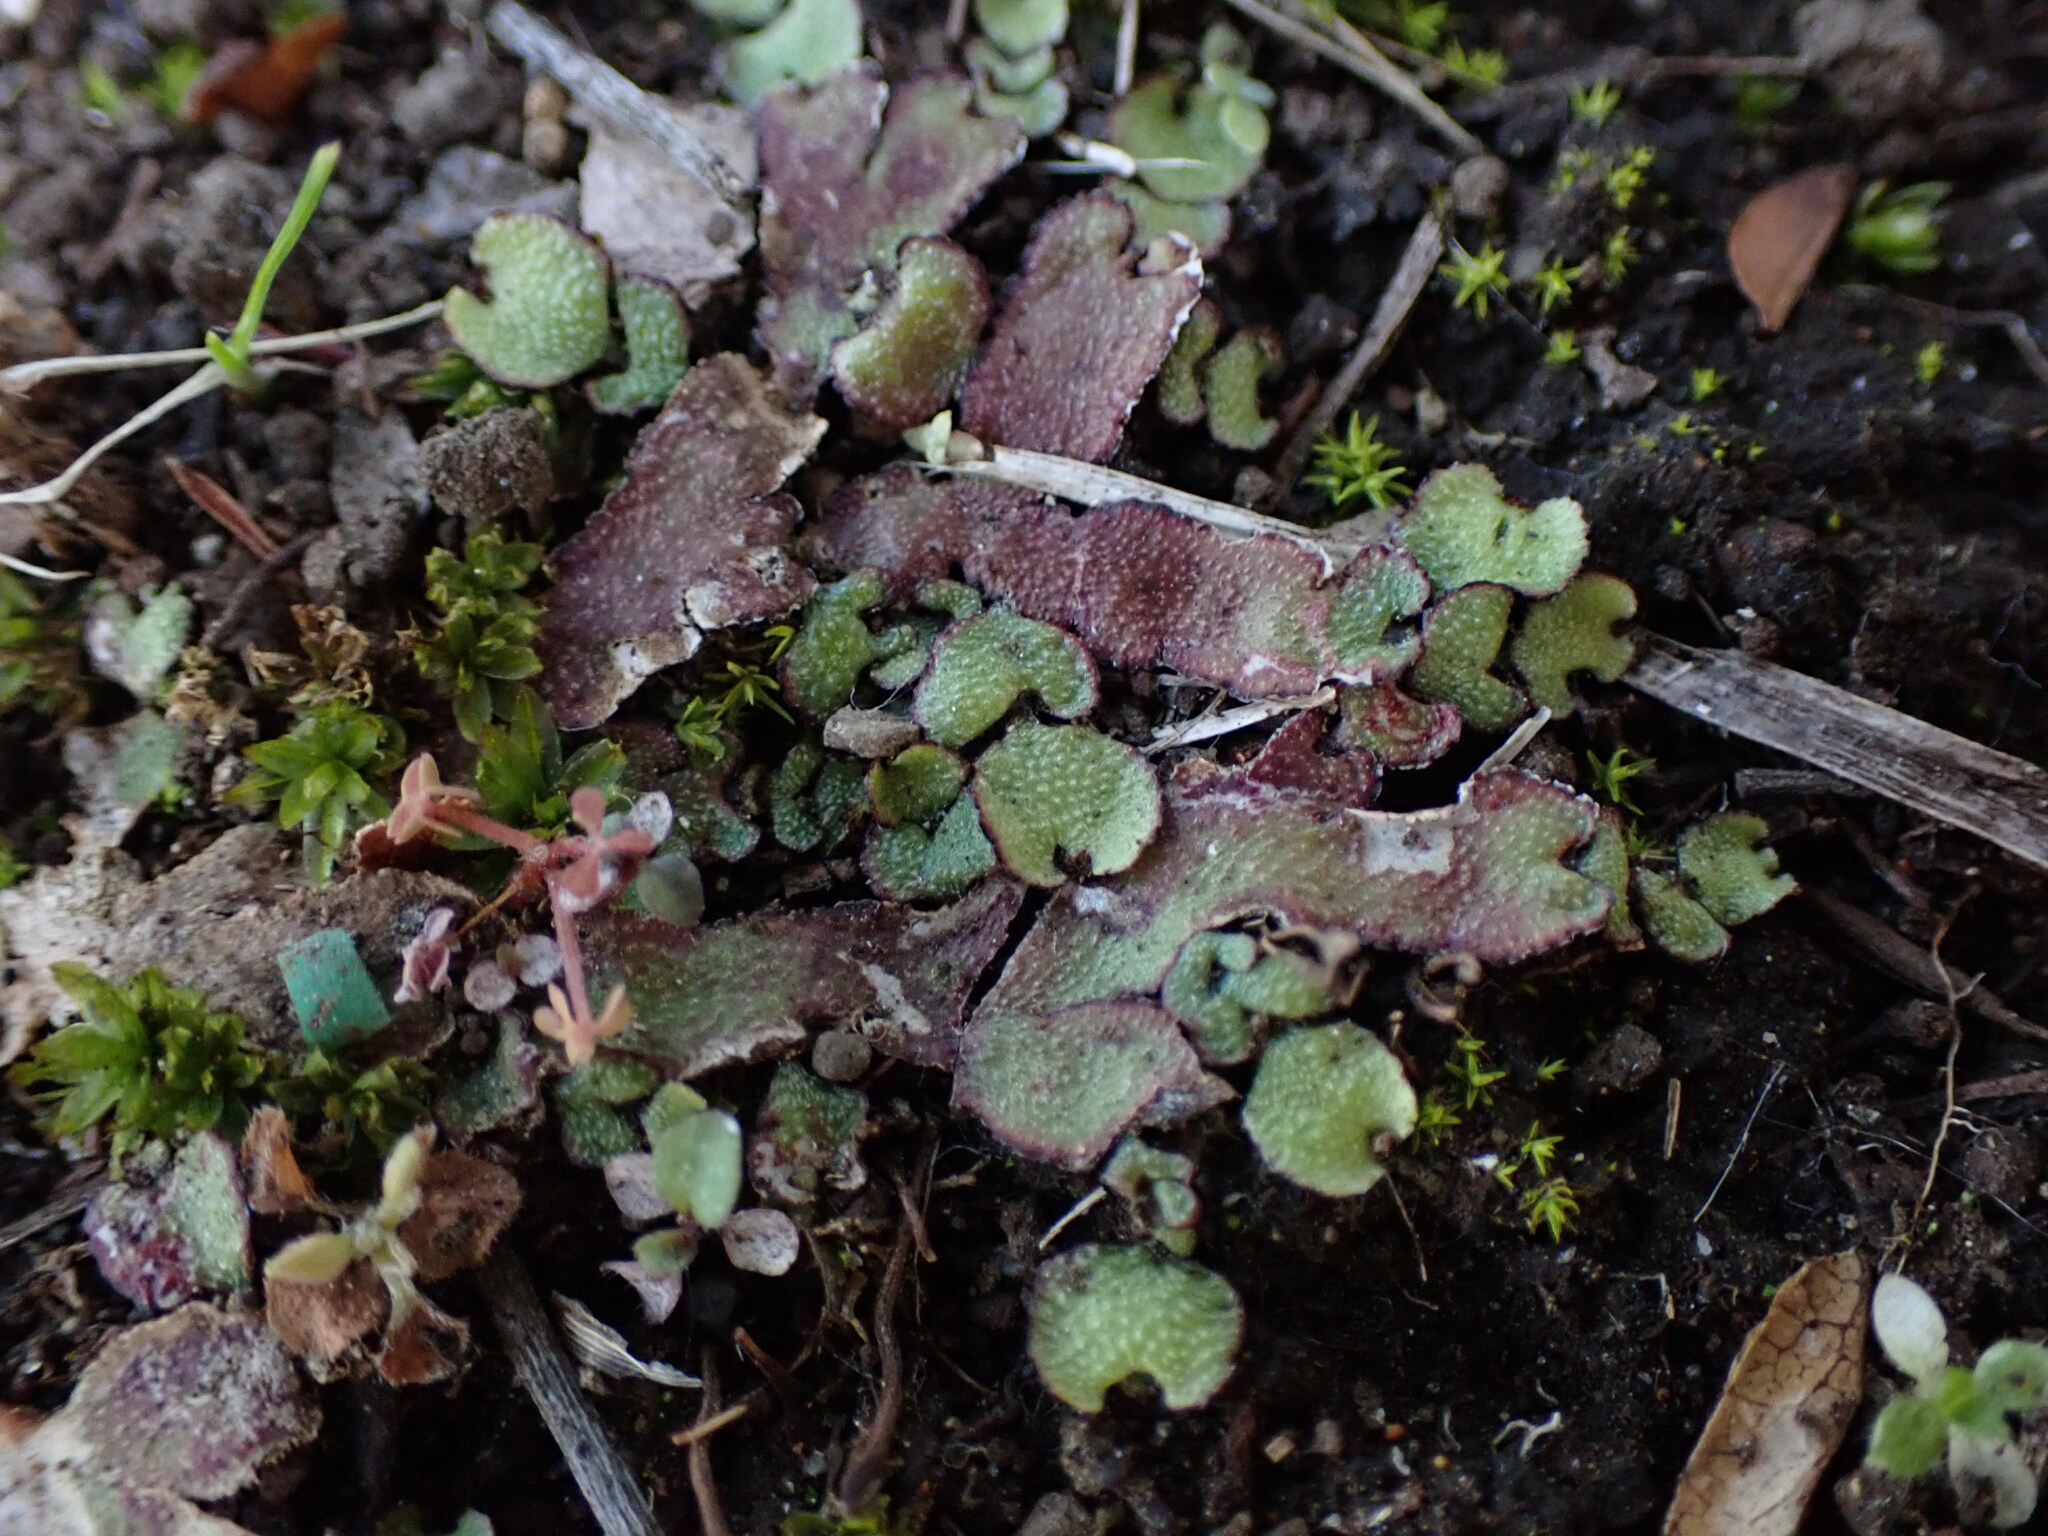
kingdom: Plantae
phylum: Marchantiophyta
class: Marchantiopsida
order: Marchantiales
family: Aytoniaceae
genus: Reboulia
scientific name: Reboulia hemisphaerica
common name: Purple-margined liverwort
